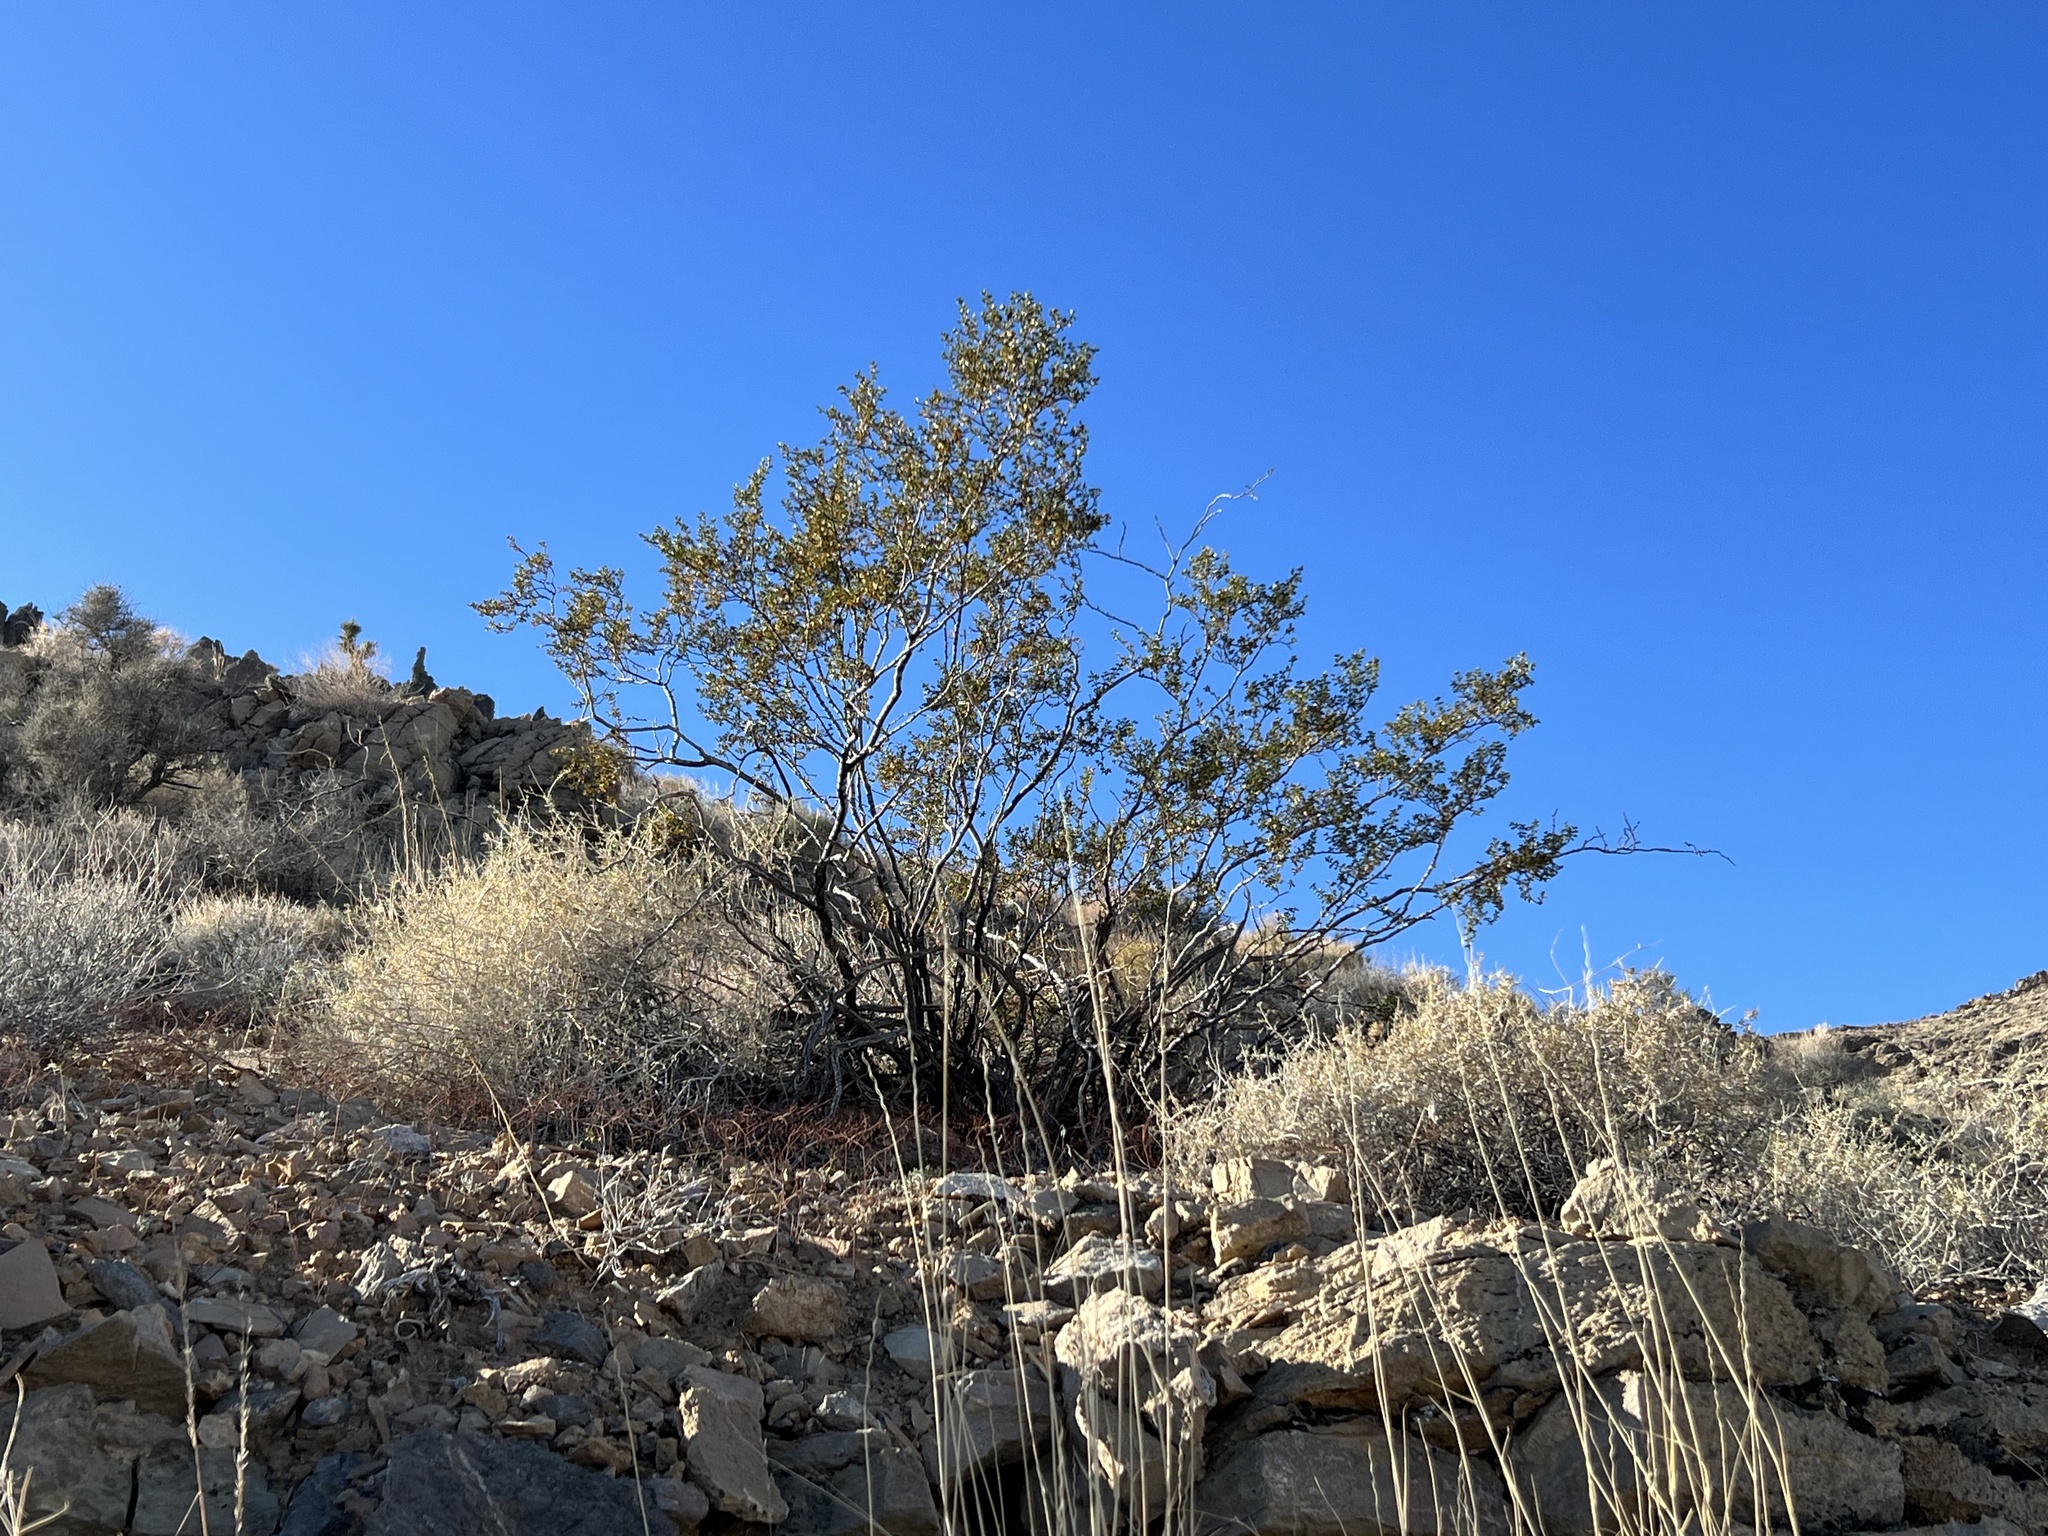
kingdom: Plantae
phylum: Tracheophyta
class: Magnoliopsida
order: Zygophyllales
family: Zygophyllaceae
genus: Larrea
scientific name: Larrea tridentata
